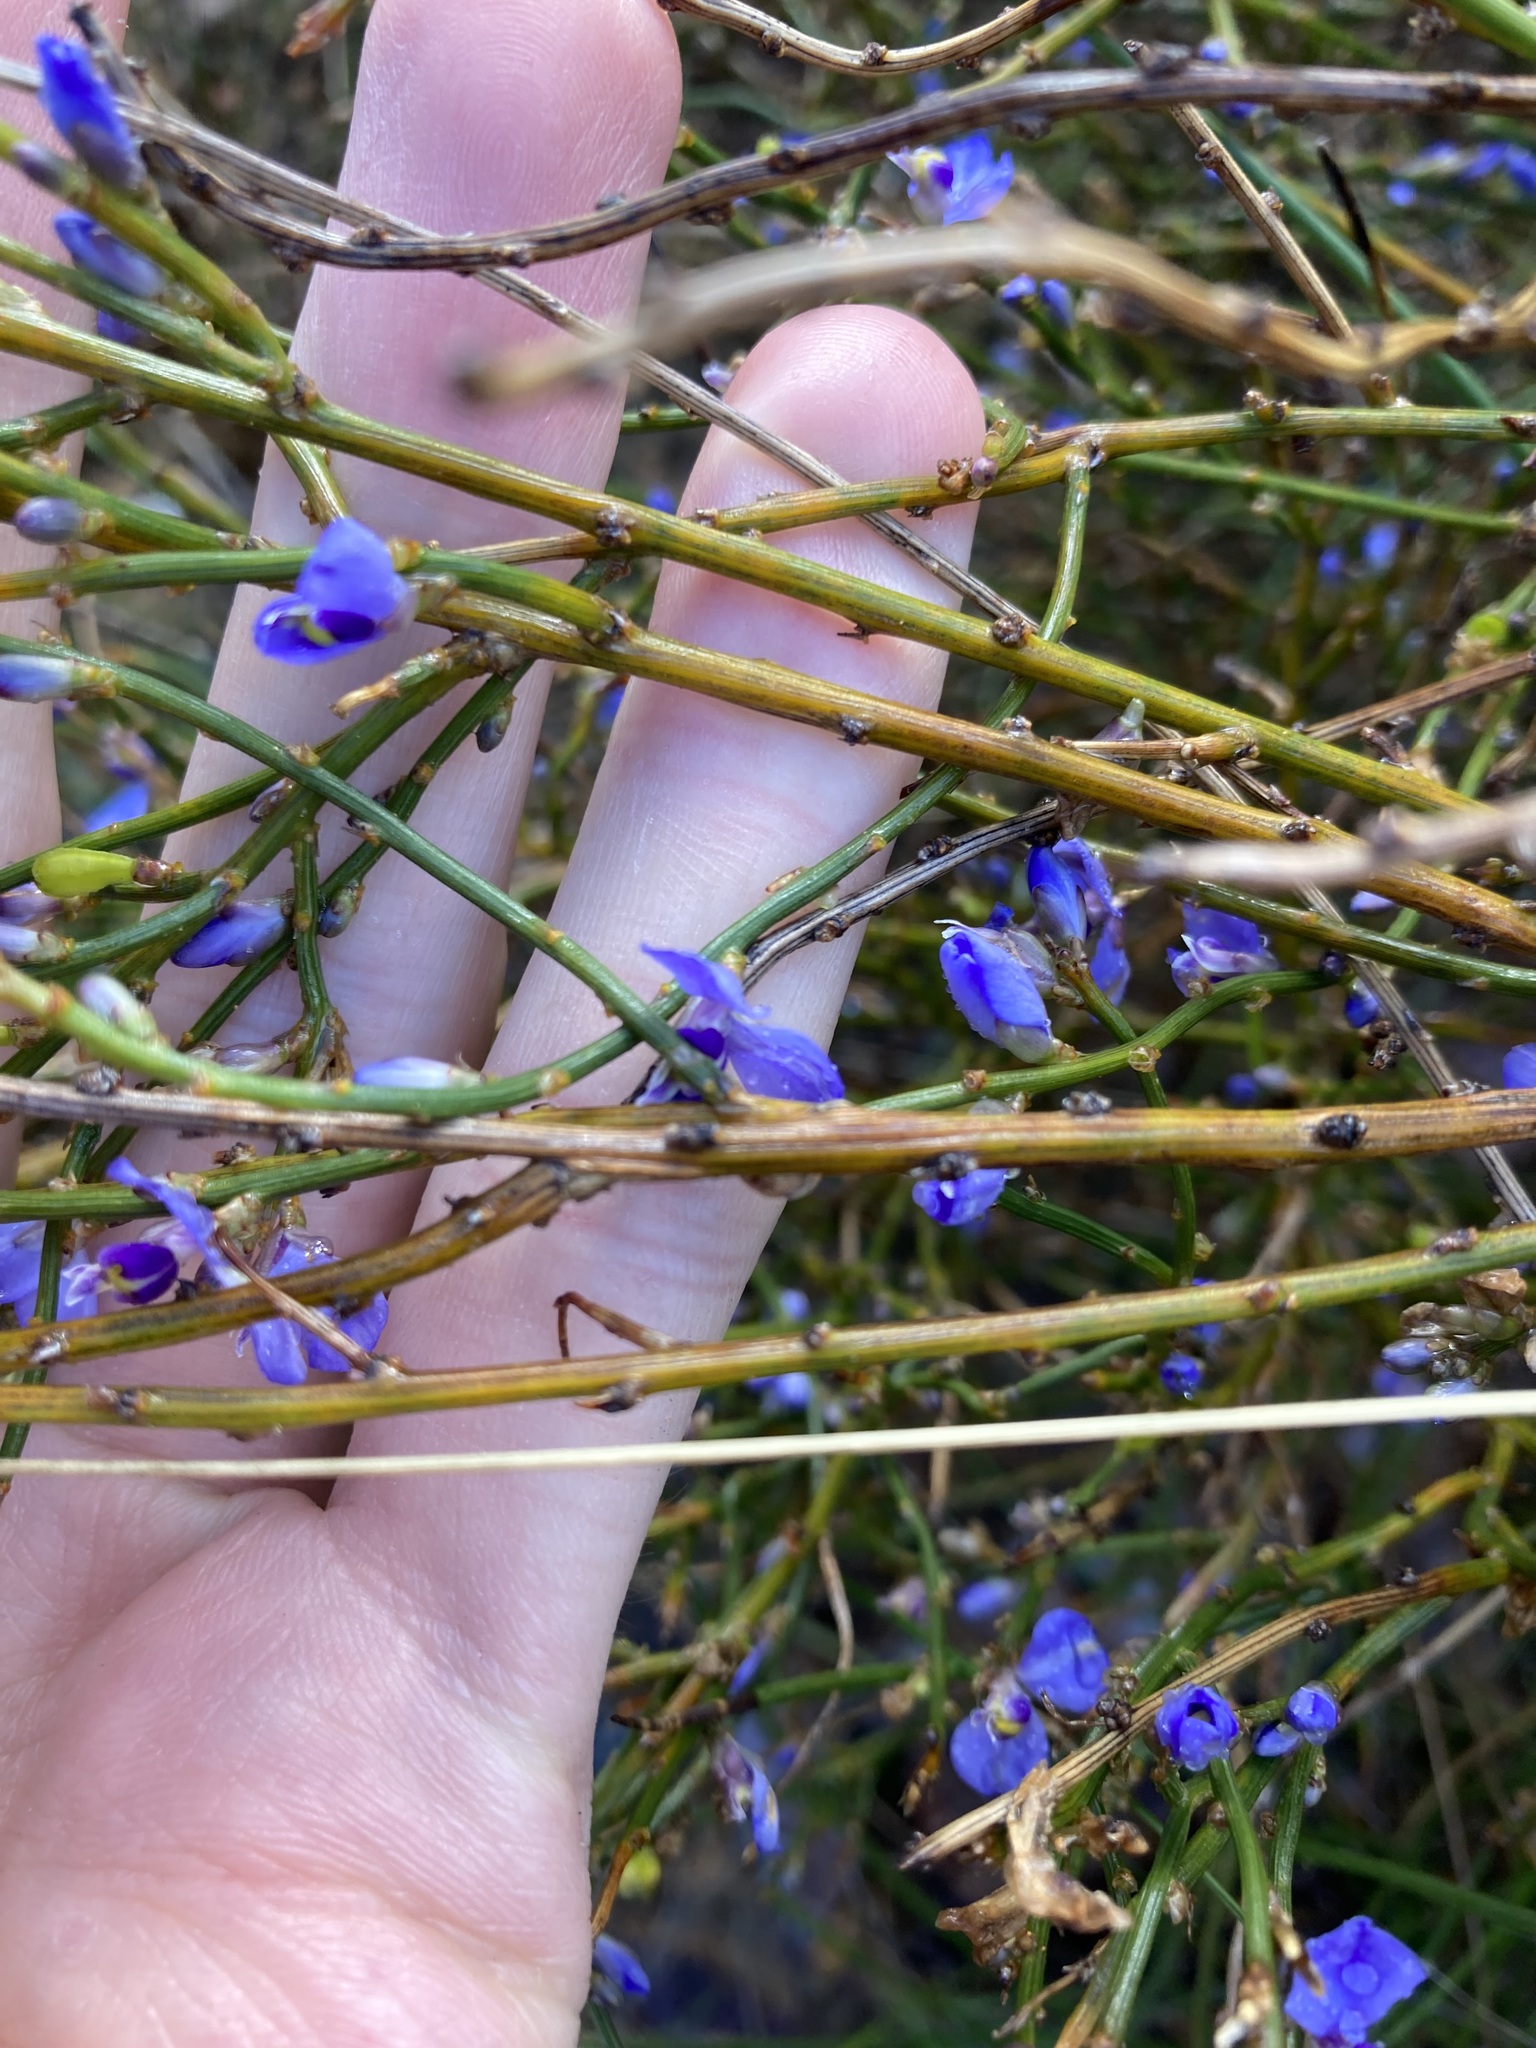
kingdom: Plantae
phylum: Tracheophyta
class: Magnoliopsida
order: Fabales
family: Polygalaceae
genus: Comesperma
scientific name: Comesperma scoparium
